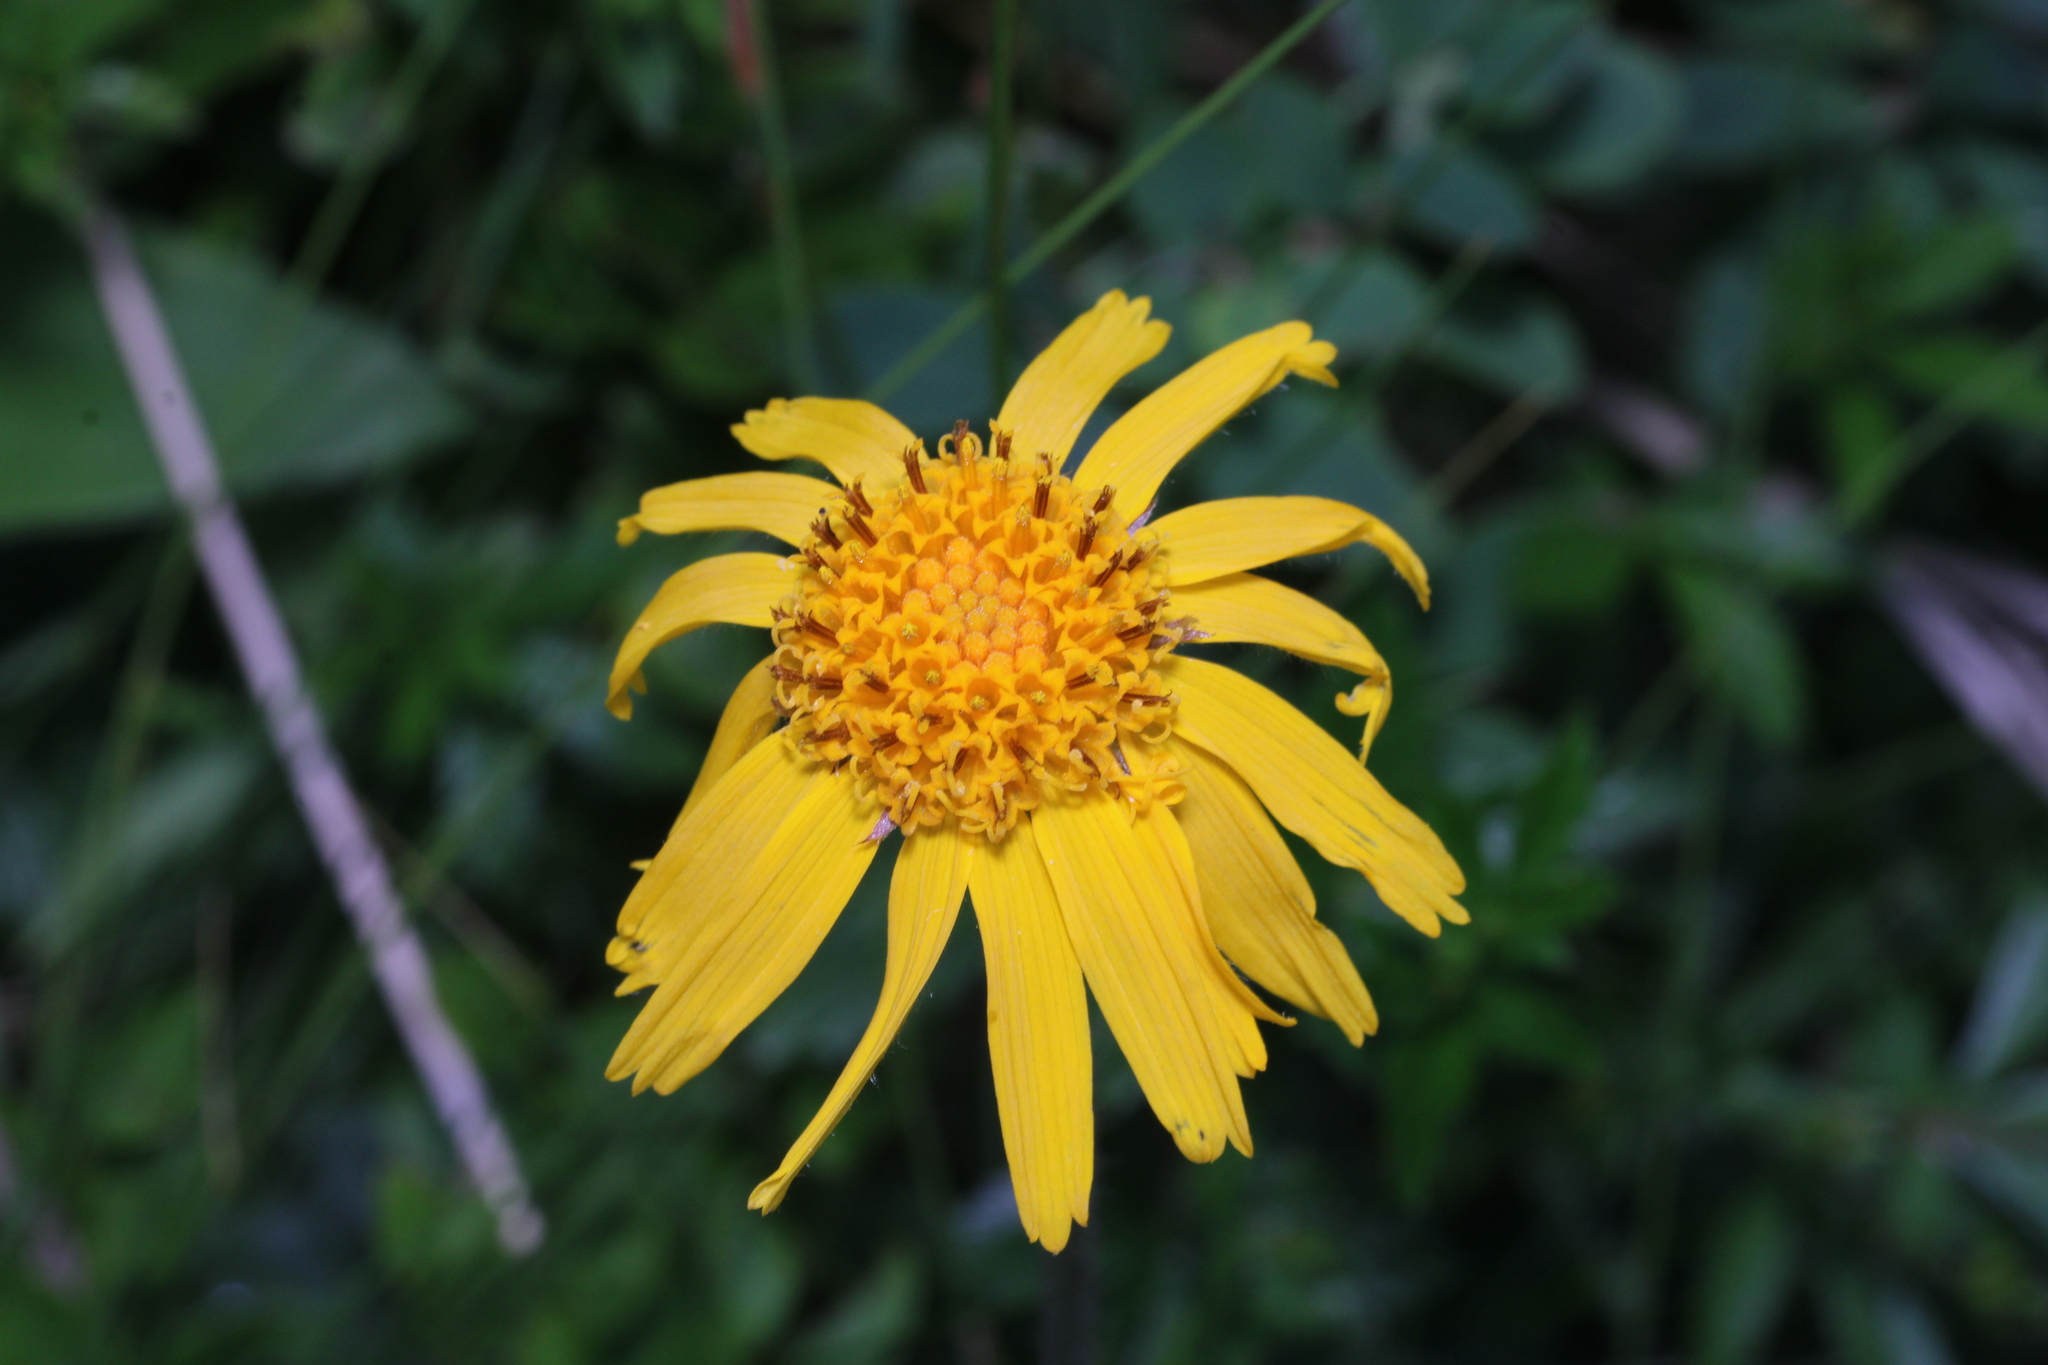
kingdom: Plantae
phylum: Tracheophyta
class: Magnoliopsida
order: Asterales
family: Asteraceae
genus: Arnica
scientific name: Arnica montana
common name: Leopard's bane
